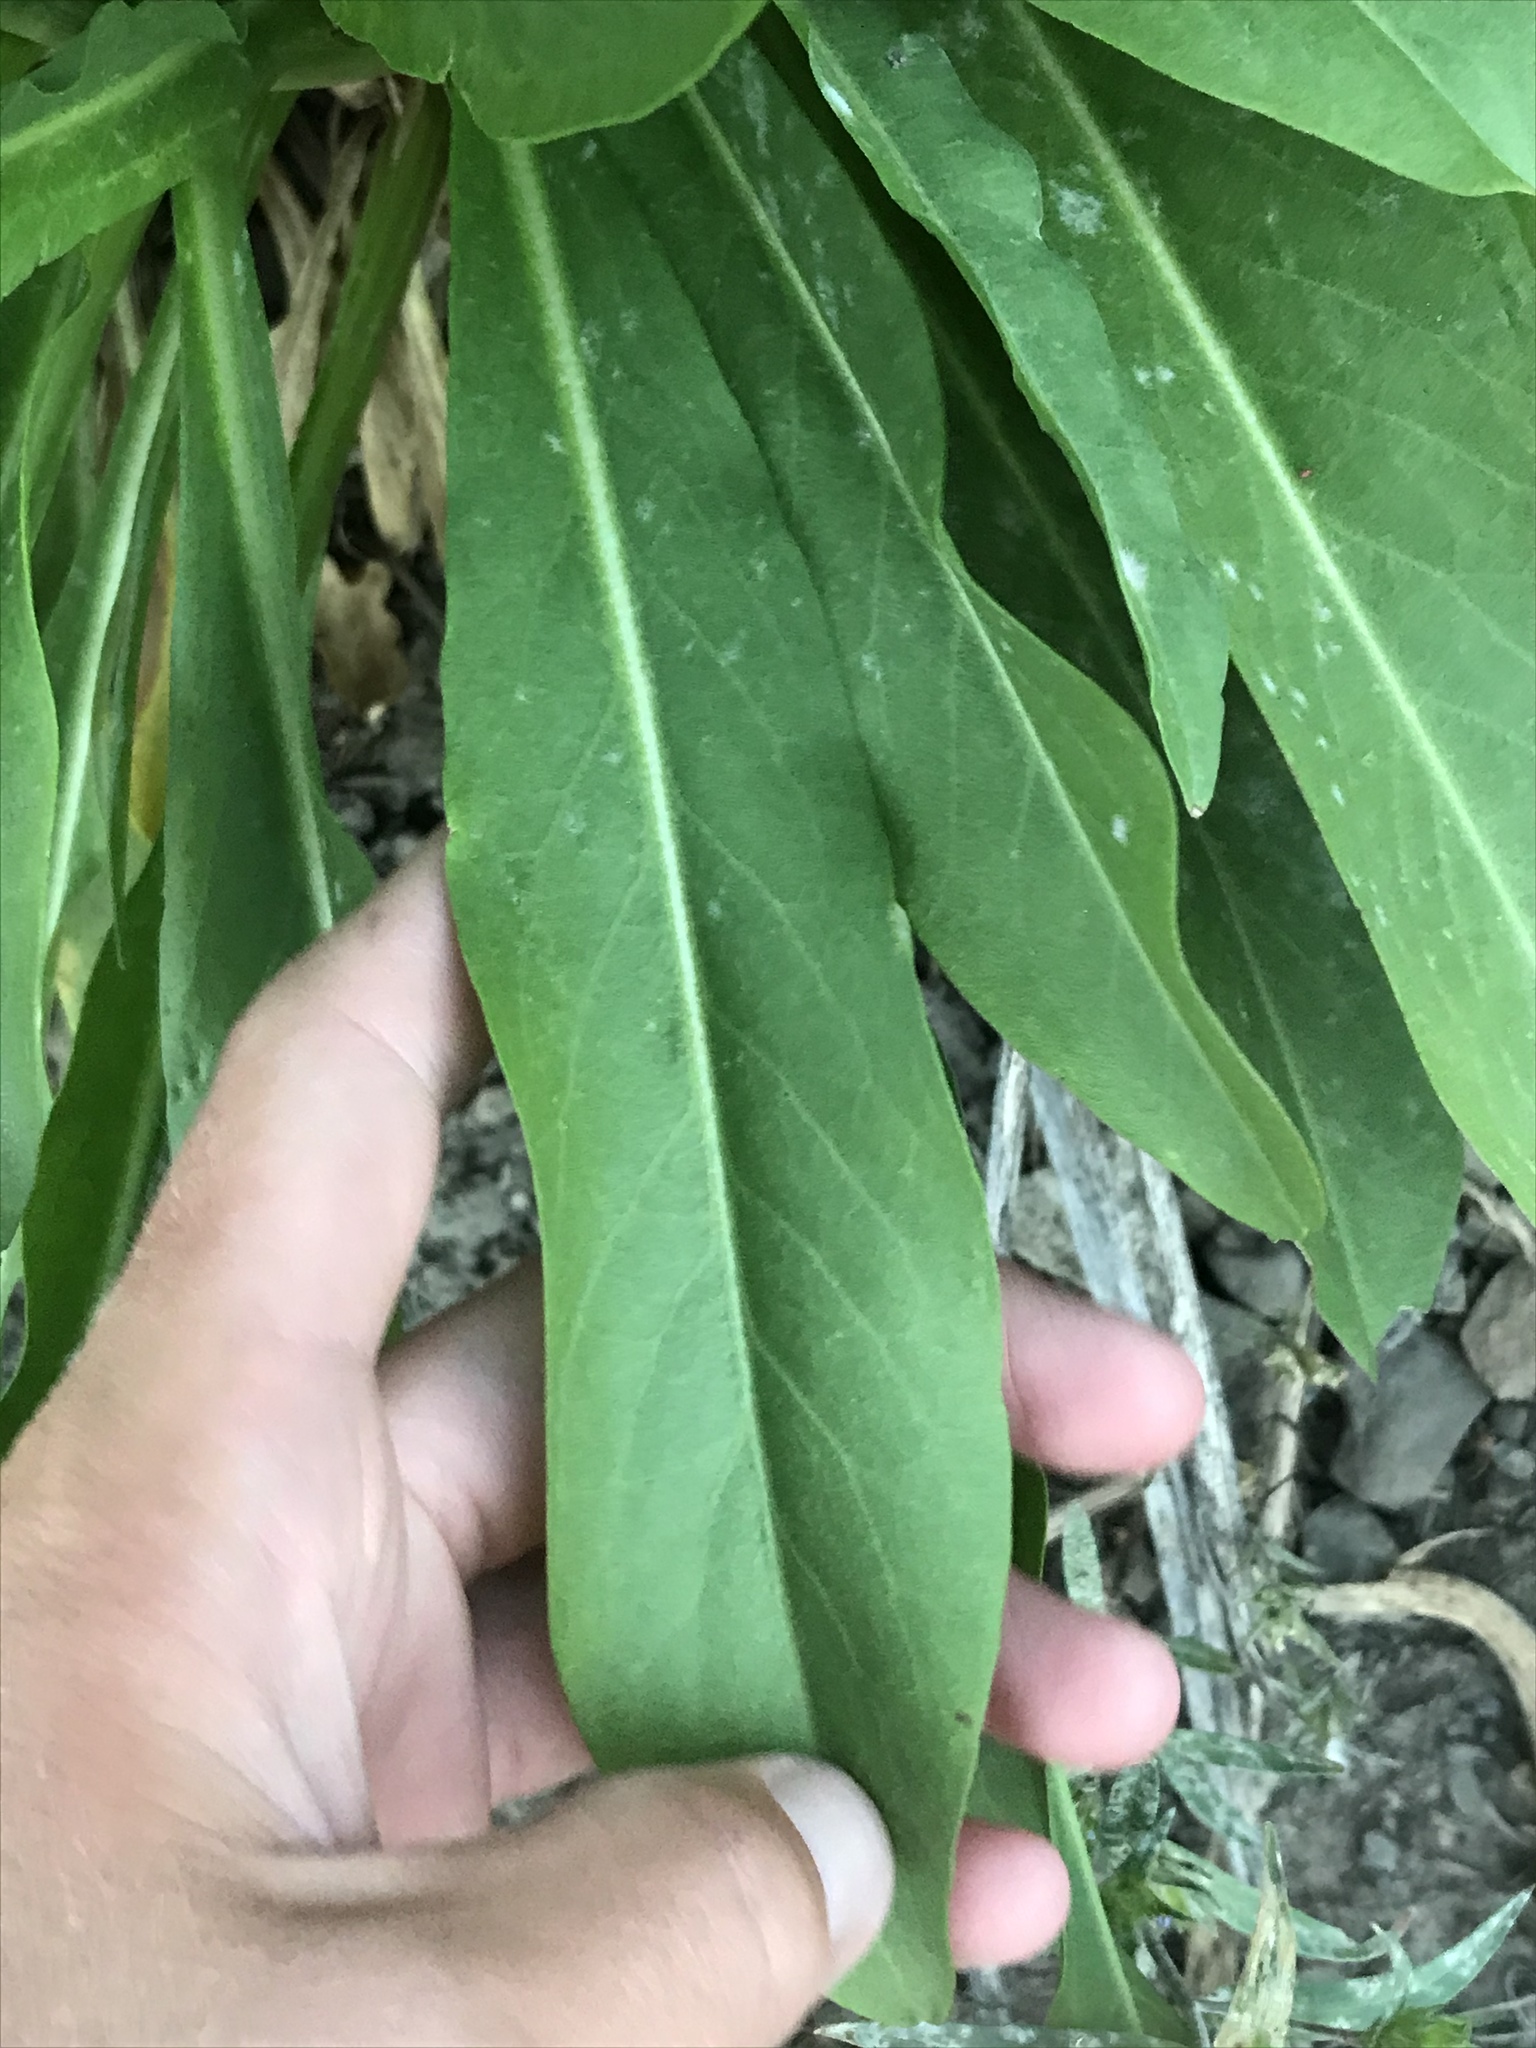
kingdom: Plantae
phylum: Tracheophyta
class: Magnoliopsida
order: Asterales
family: Asteraceae
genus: Pyrrocoma
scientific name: Pyrrocoma crocea
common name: Curly-head goldenweed
